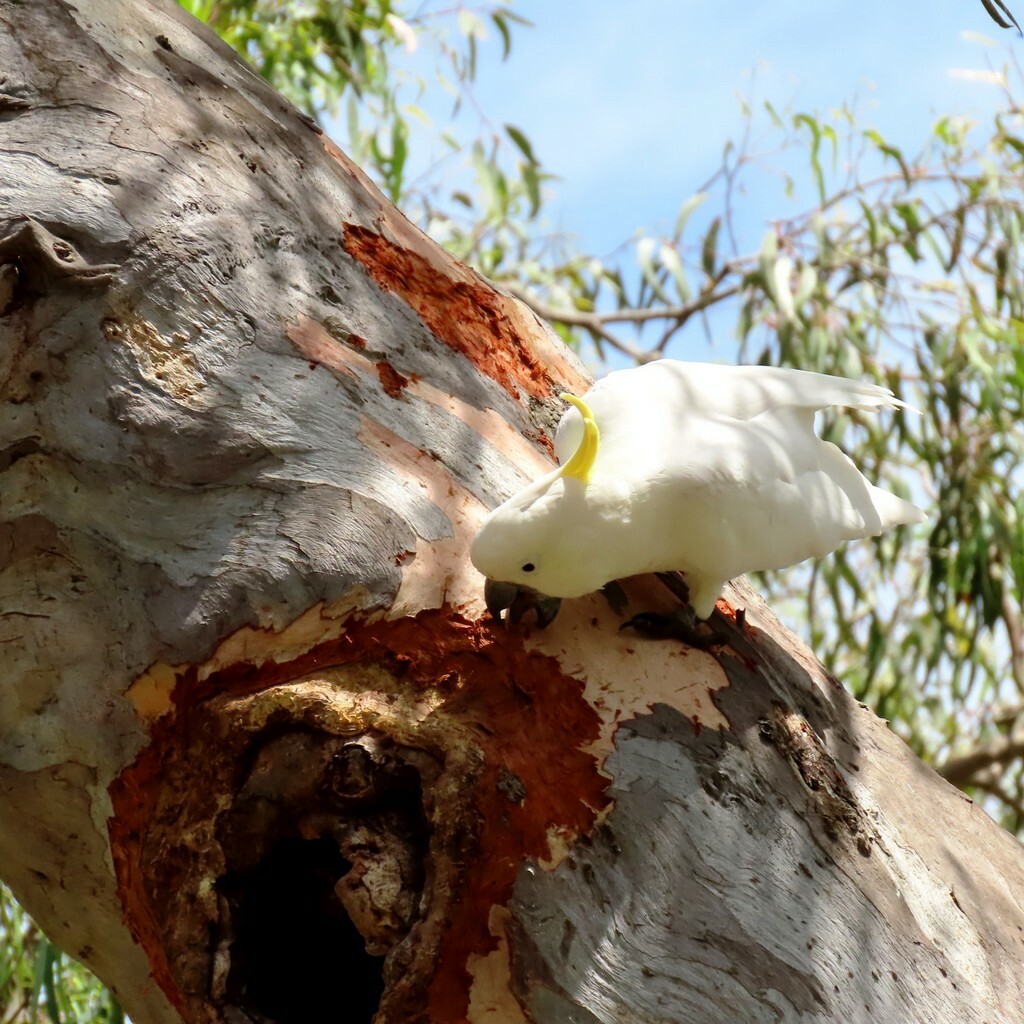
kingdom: Animalia
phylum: Chordata
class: Aves
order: Psittaciformes
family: Psittacidae
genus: Cacatua
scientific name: Cacatua galerita
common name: Sulphur-crested cockatoo
